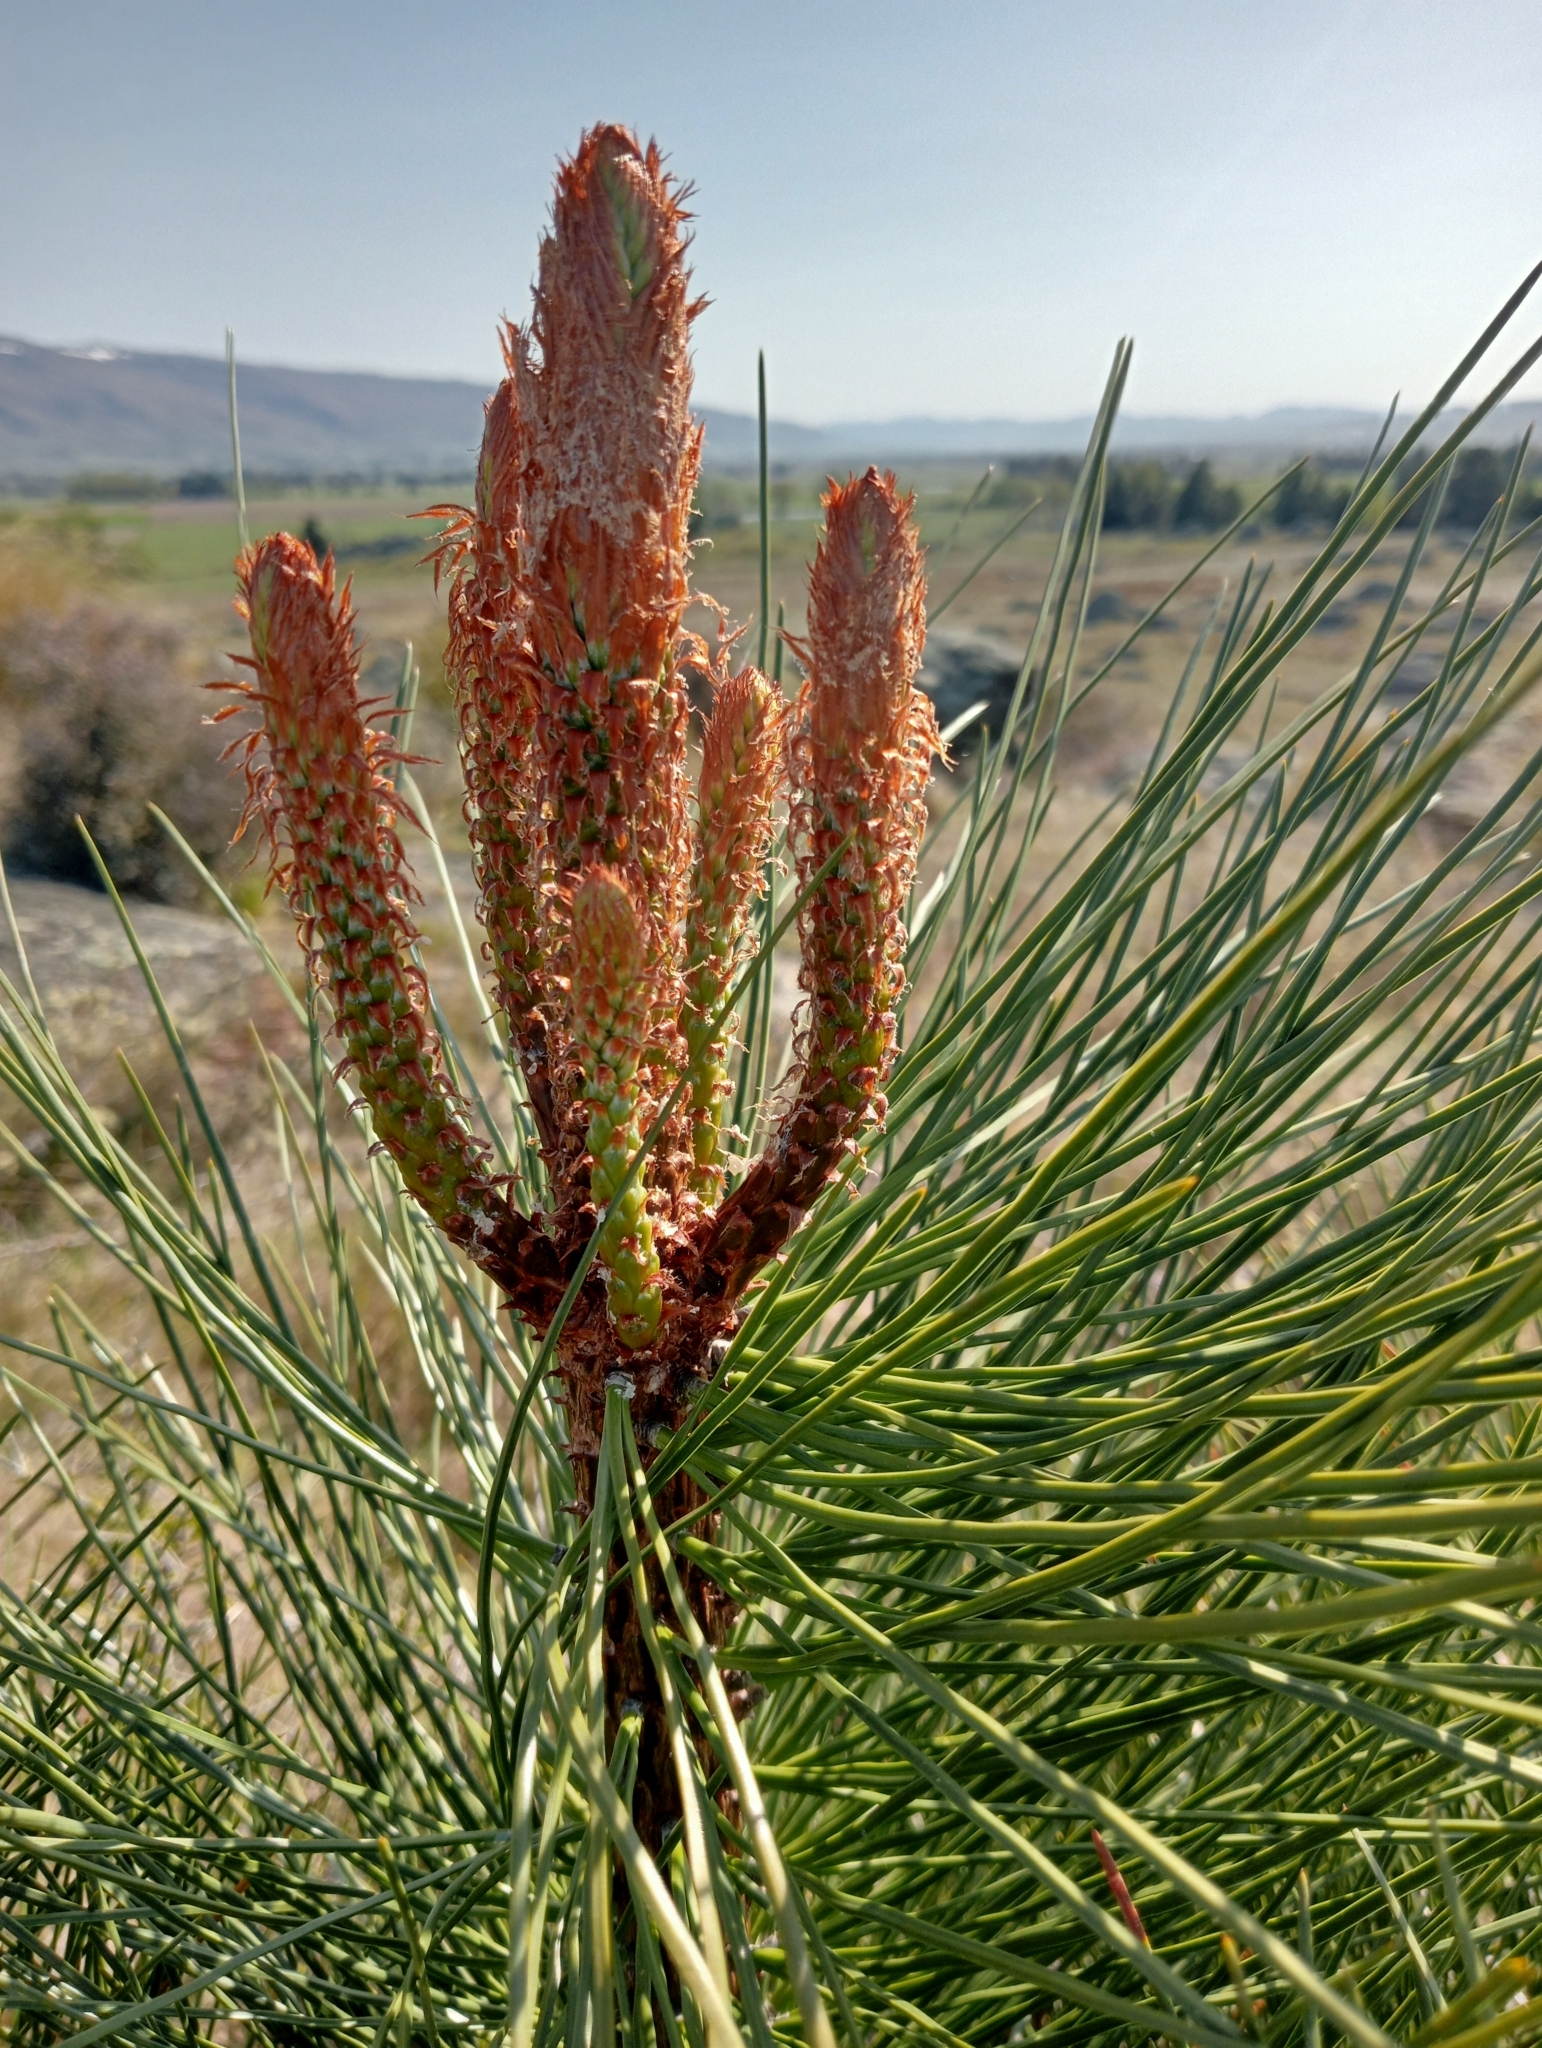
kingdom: Plantae
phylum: Tracheophyta
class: Pinopsida
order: Pinales
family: Pinaceae
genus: Pinus
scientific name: Pinus radiata
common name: Monterey pine
